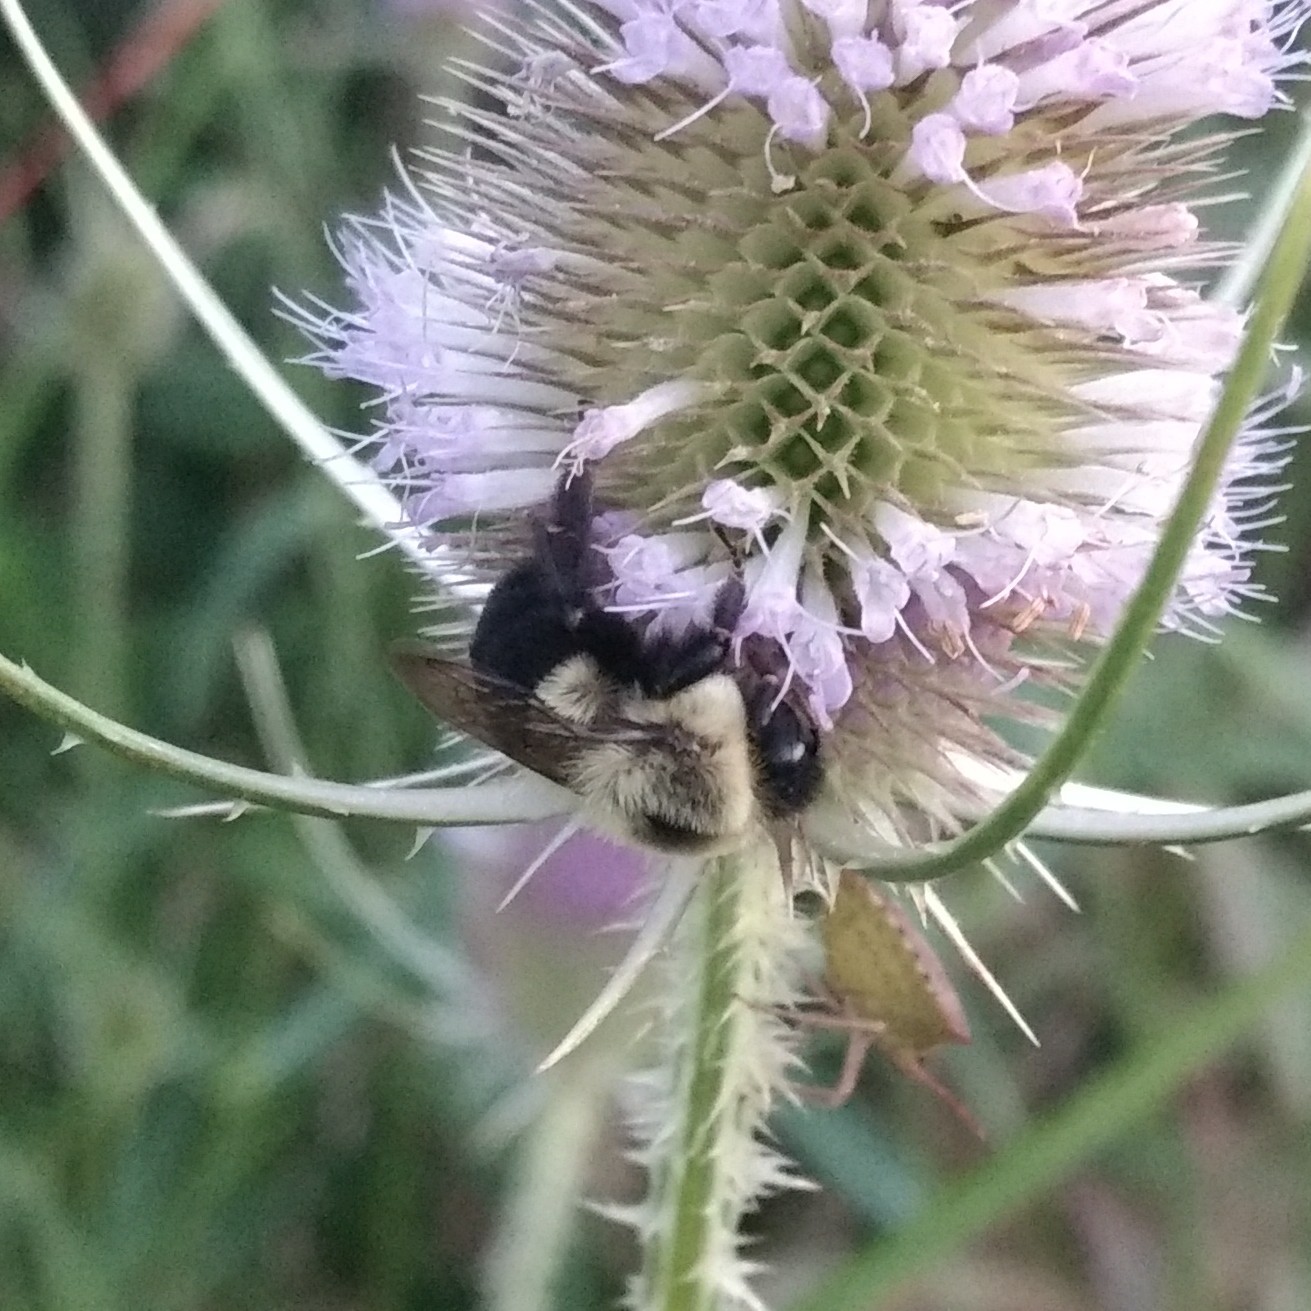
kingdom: Animalia
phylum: Arthropoda
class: Insecta
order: Hymenoptera
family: Apidae
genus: Bombus
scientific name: Bombus impatiens
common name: Common eastern bumble bee
